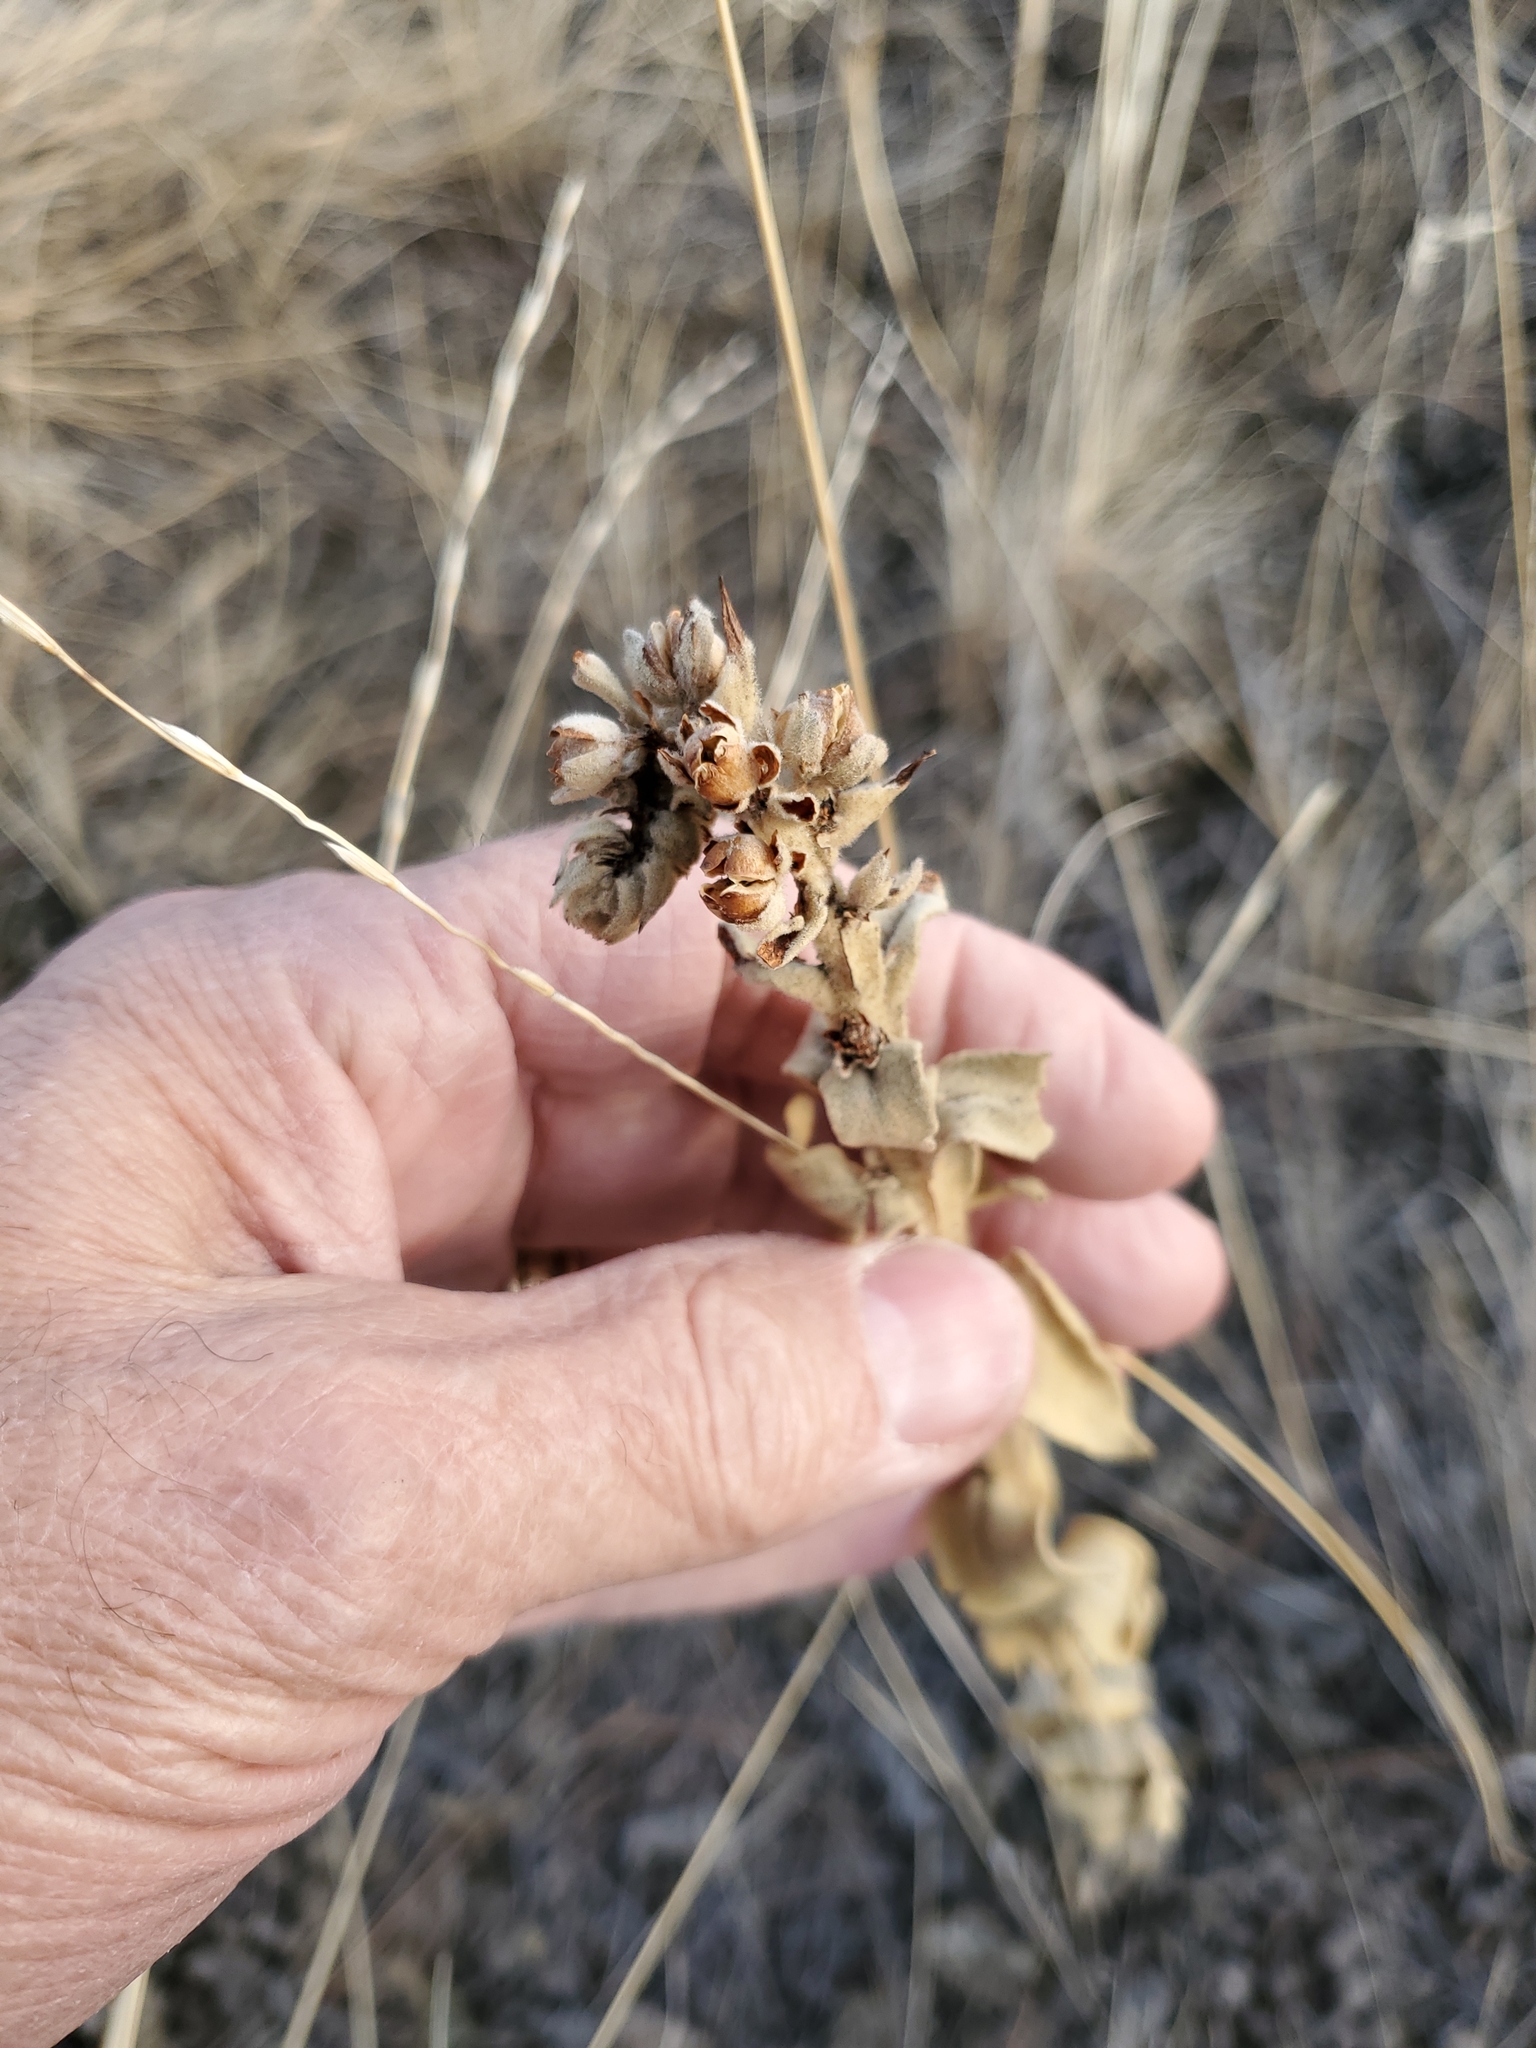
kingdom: Plantae
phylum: Tracheophyta
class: Magnoliopsida
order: Lamiales
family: Scrophulariaceae
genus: Verbascum
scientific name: Verbascum thapsus
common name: Common mullein
